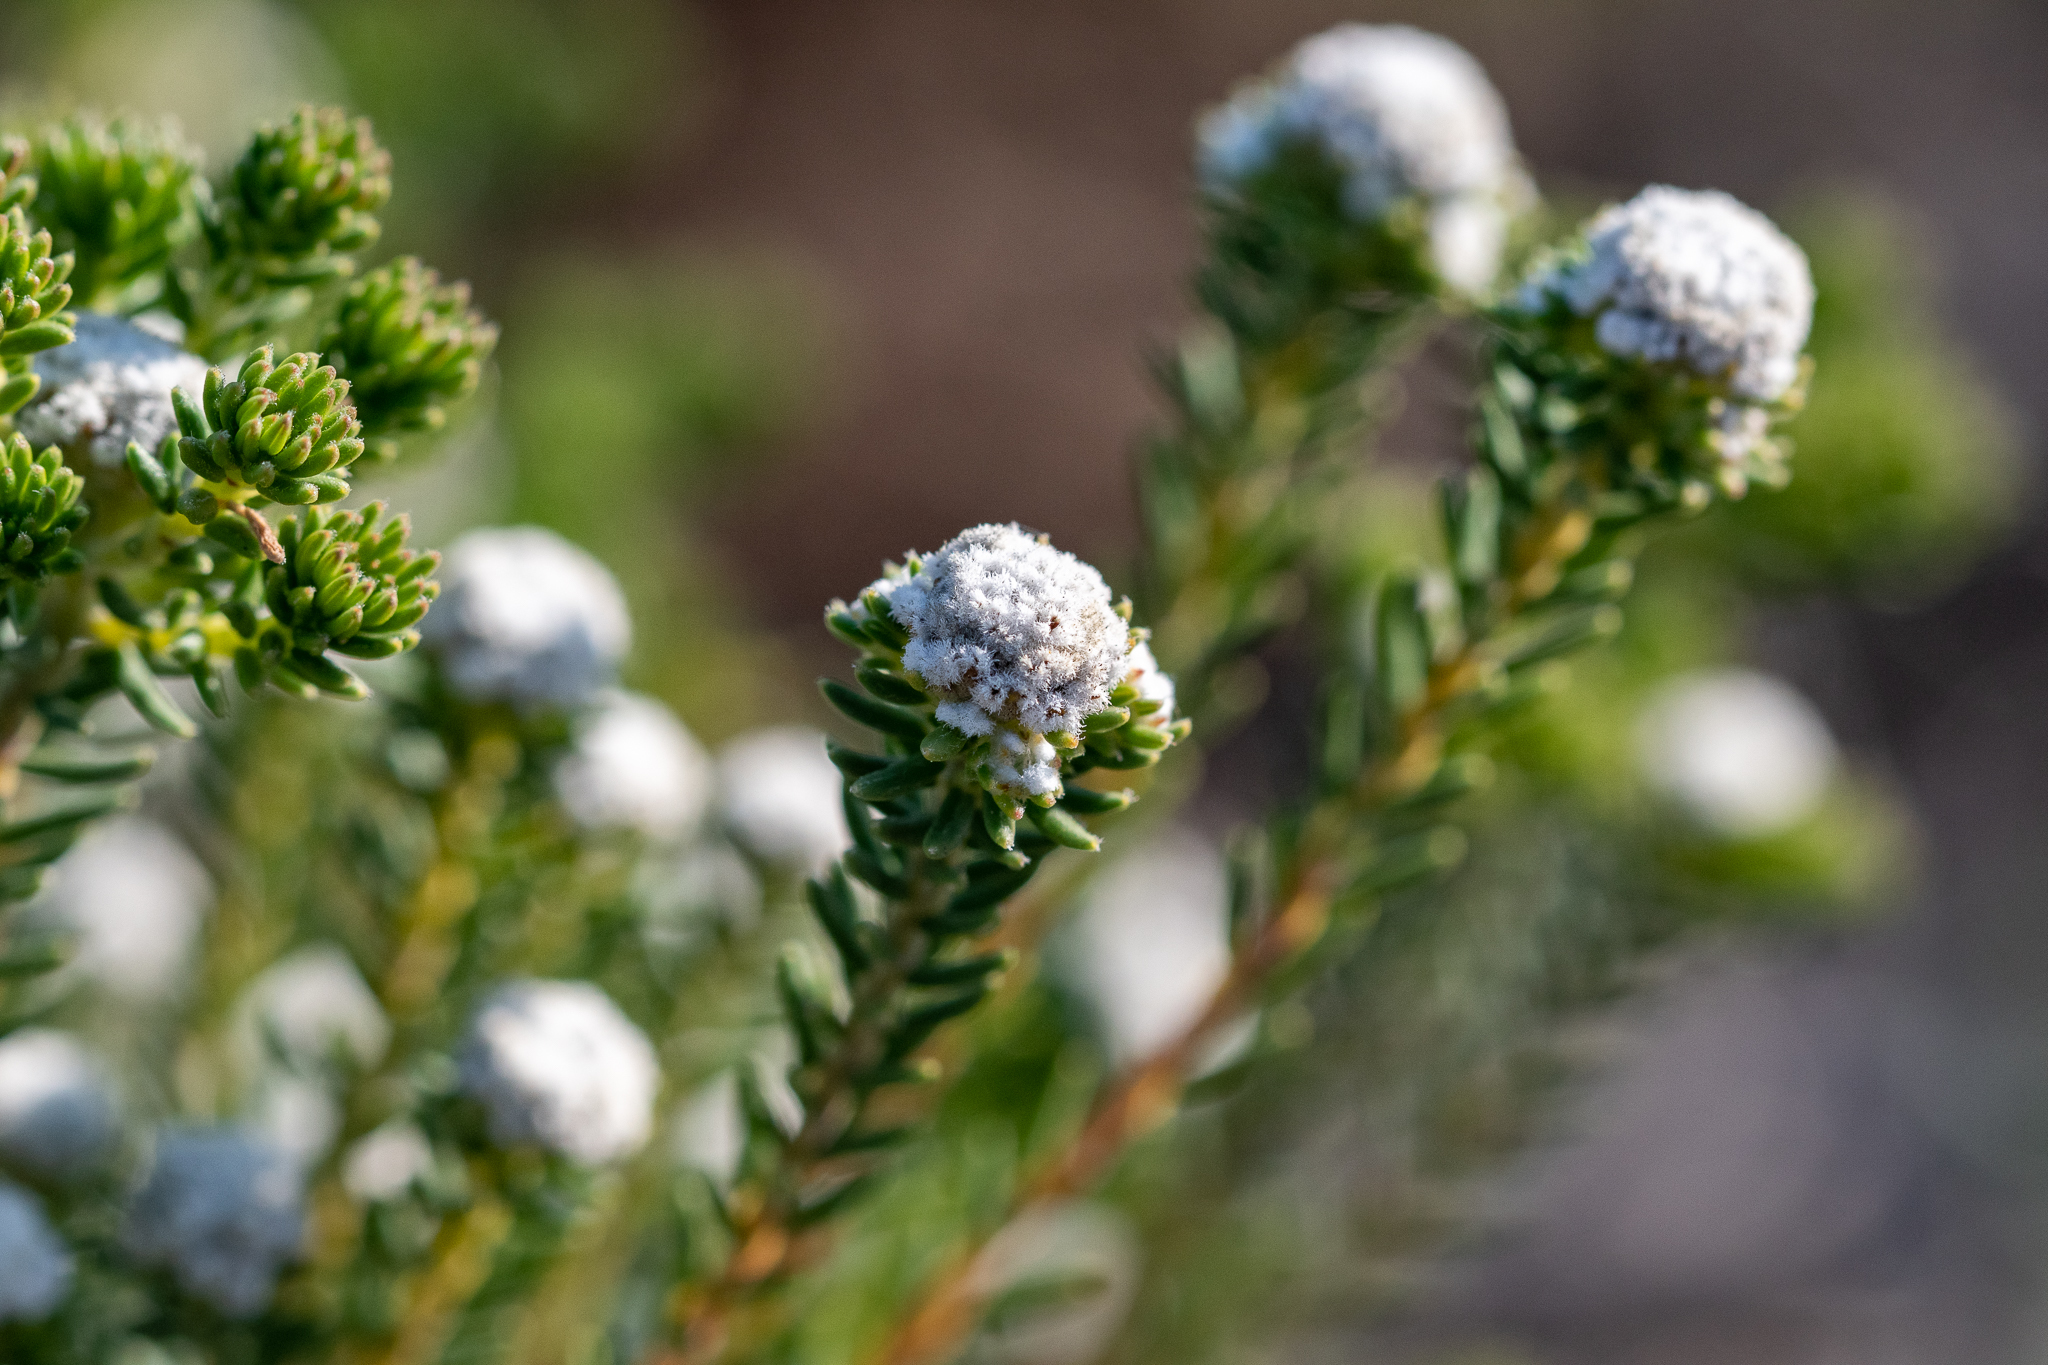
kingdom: Plantae
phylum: Tracheophyta
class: Magnoliopsida
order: Rosales
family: Rhamnaceae
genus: Phylica
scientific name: Phylica selaginoides
